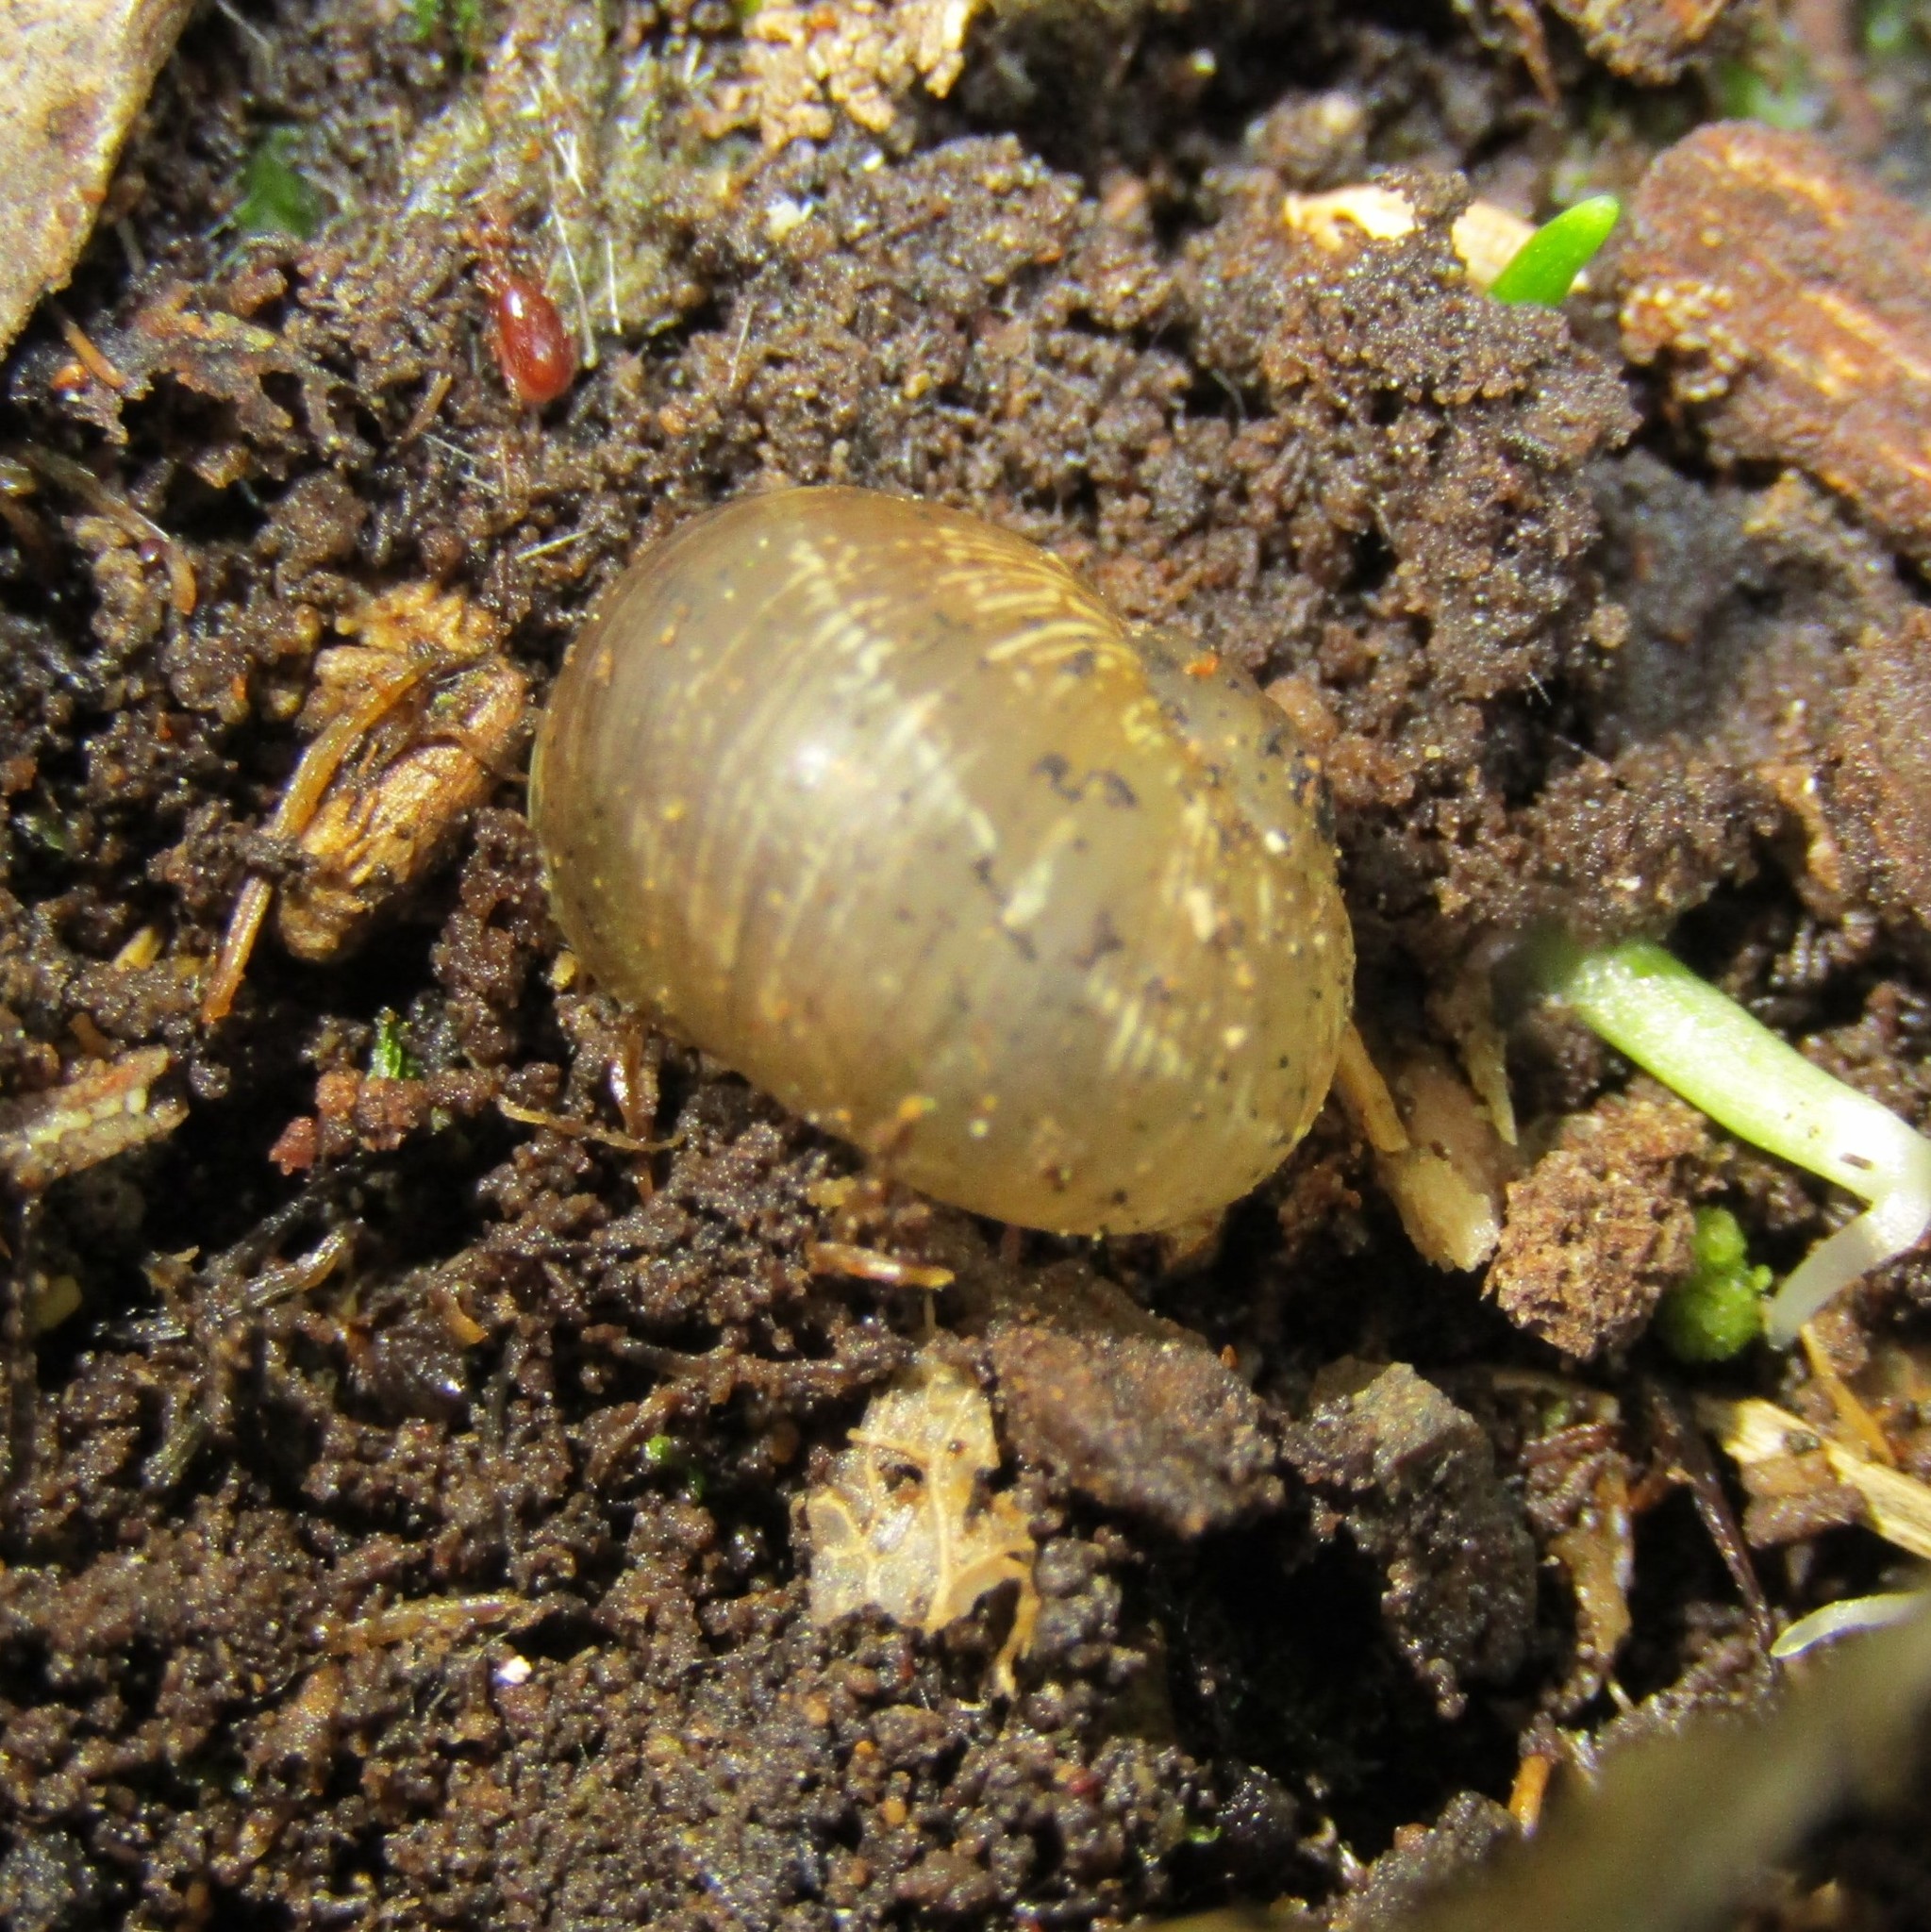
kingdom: Animalia
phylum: Mollusca
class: Gastropoda
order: Stylommatophora
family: Helicidae
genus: Cornu
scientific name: Cornu aspersum
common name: Brown garden snail
